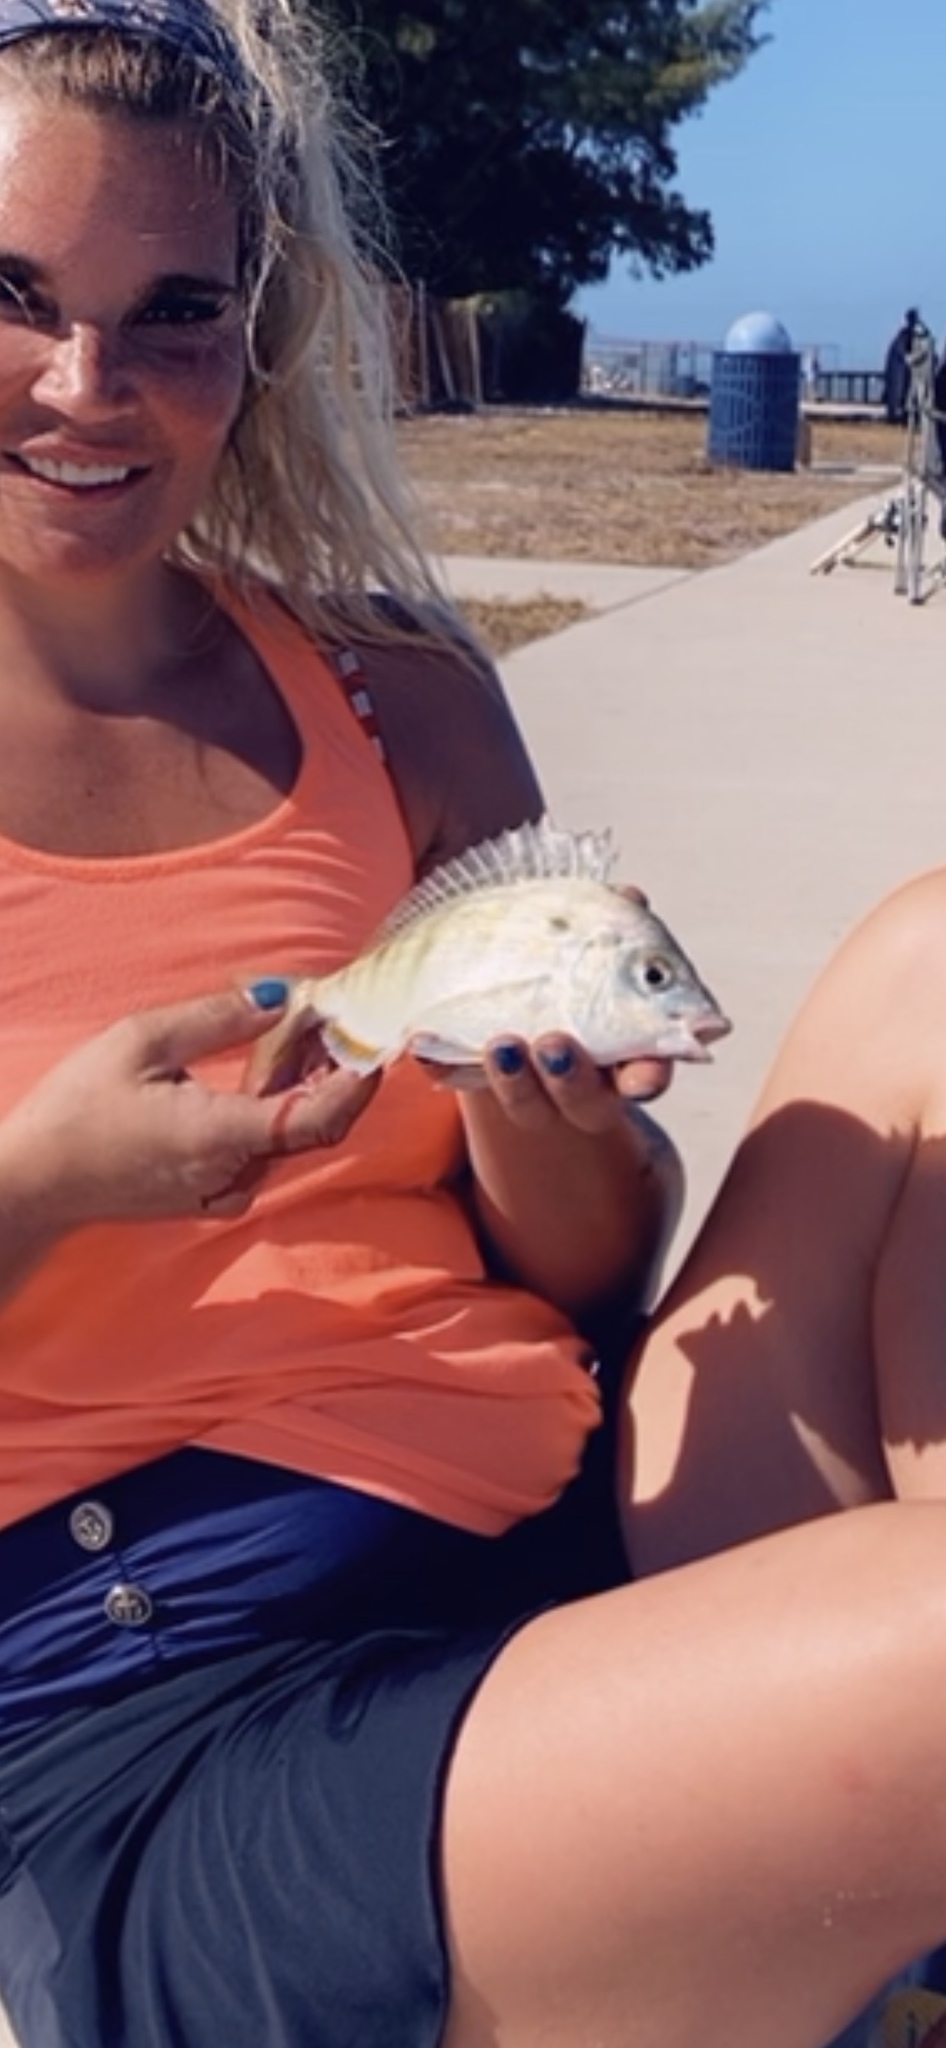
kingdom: Animalia
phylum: Chordata
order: Perciformes
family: Sparidae
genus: Lagodon
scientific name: Lagodon rhomboides
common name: Pinfish
